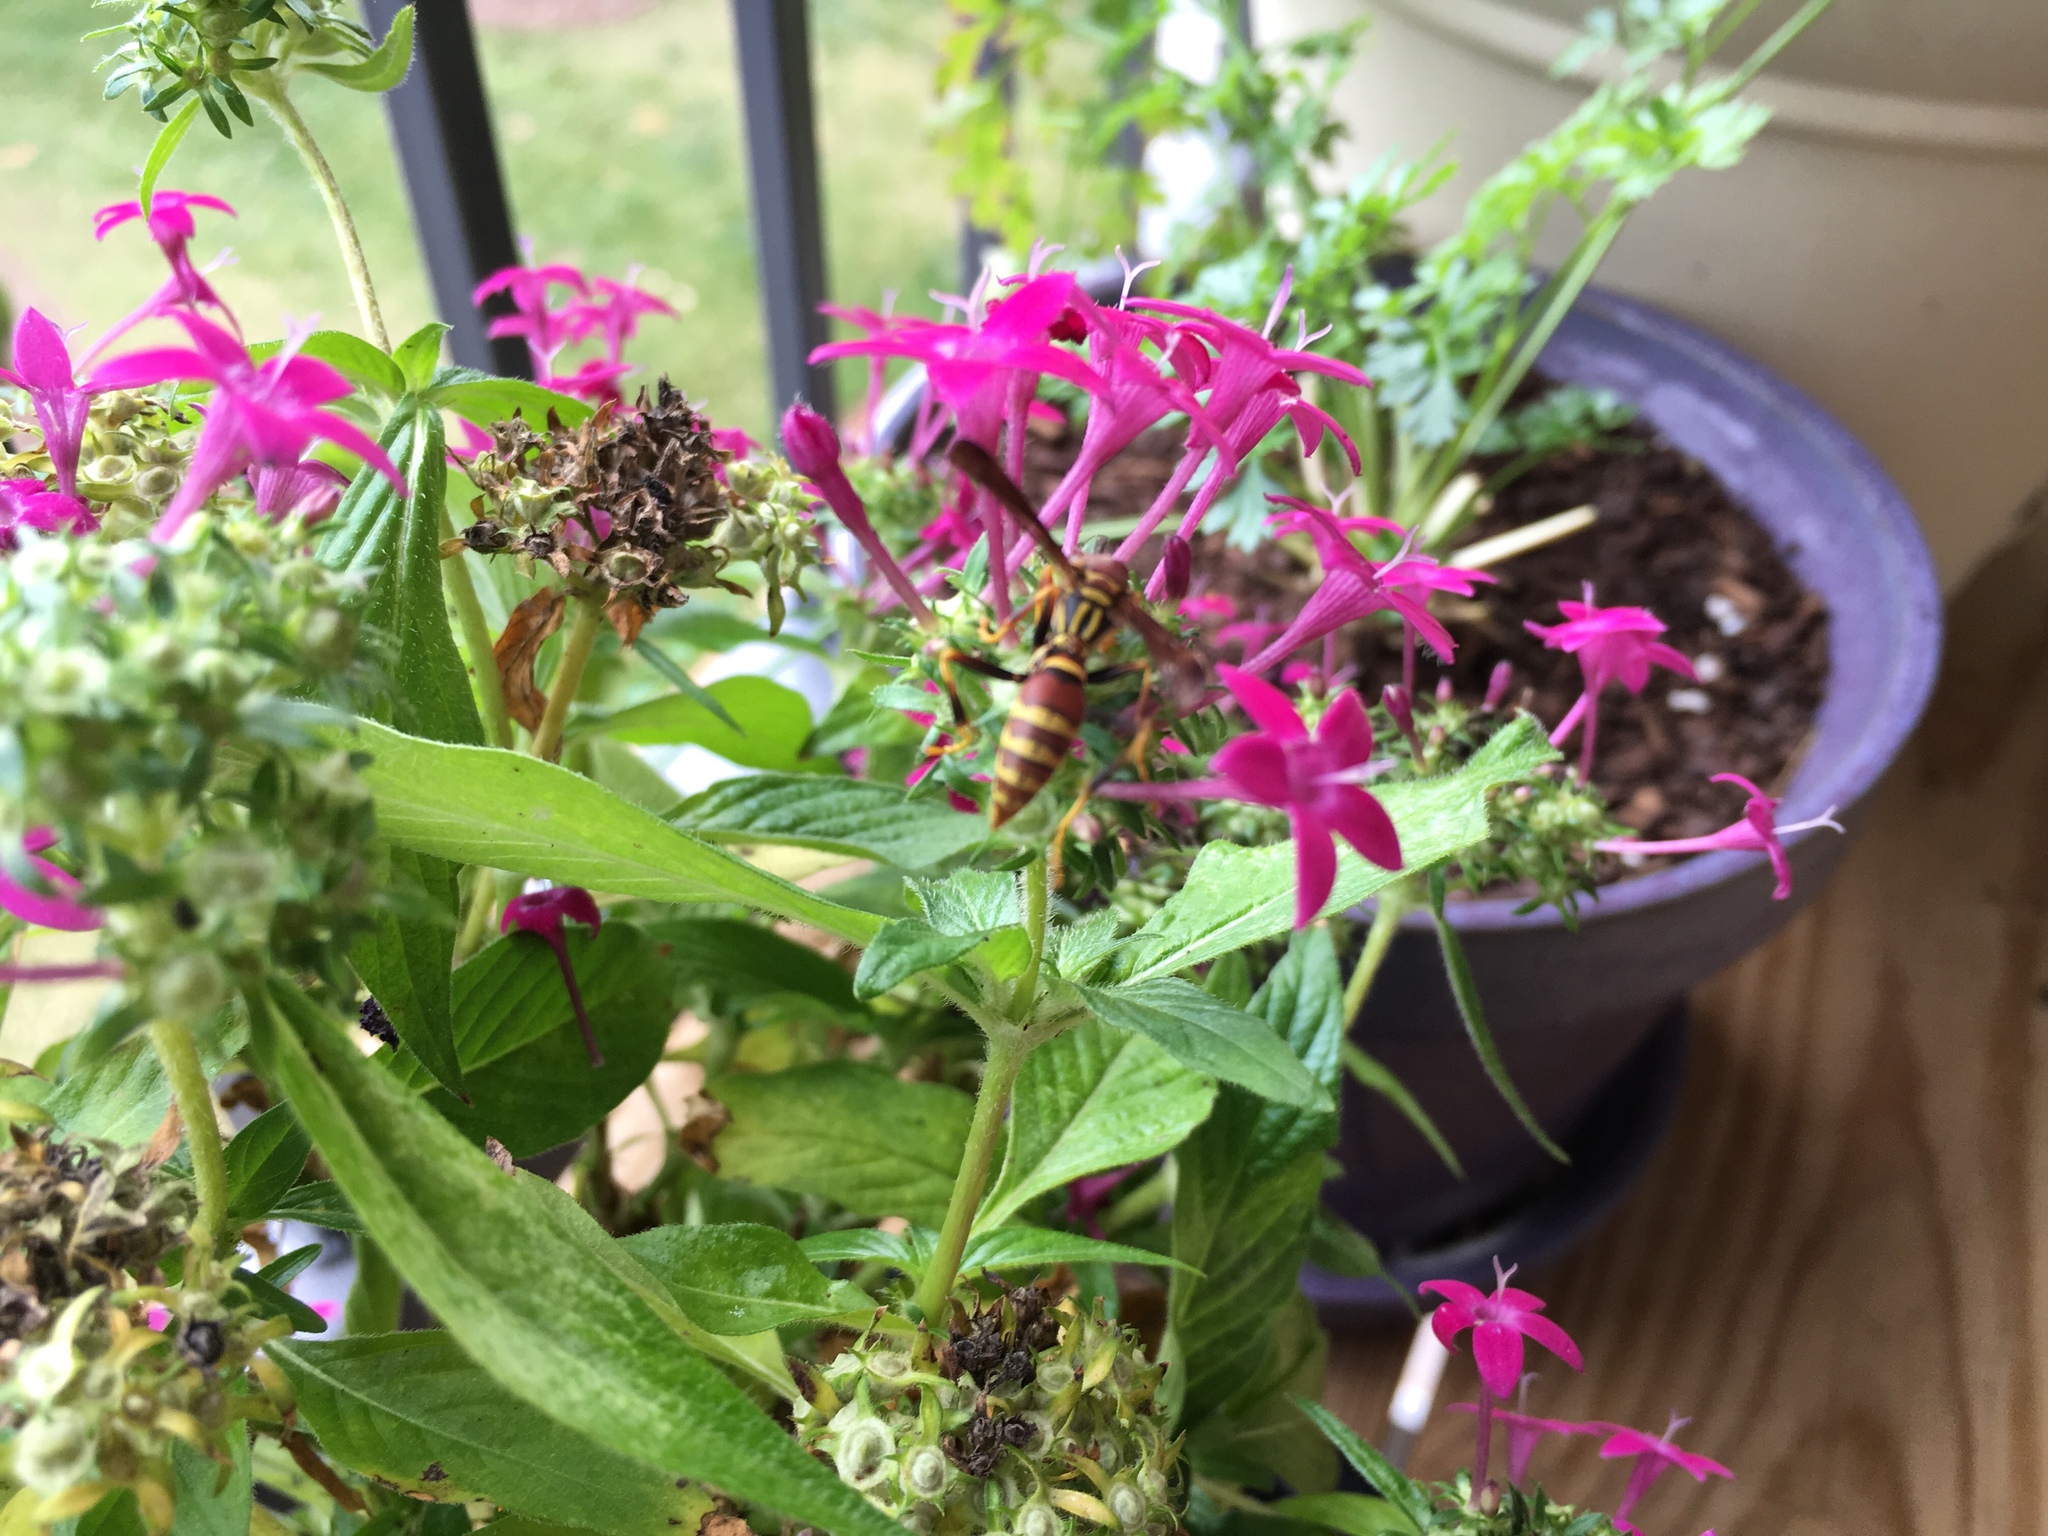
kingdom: Animalia
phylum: Arthropoda
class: Insecta
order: Hymenoptera
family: Eumenidae
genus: Polistes
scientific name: Polistes exclamans
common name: Paper wasp
